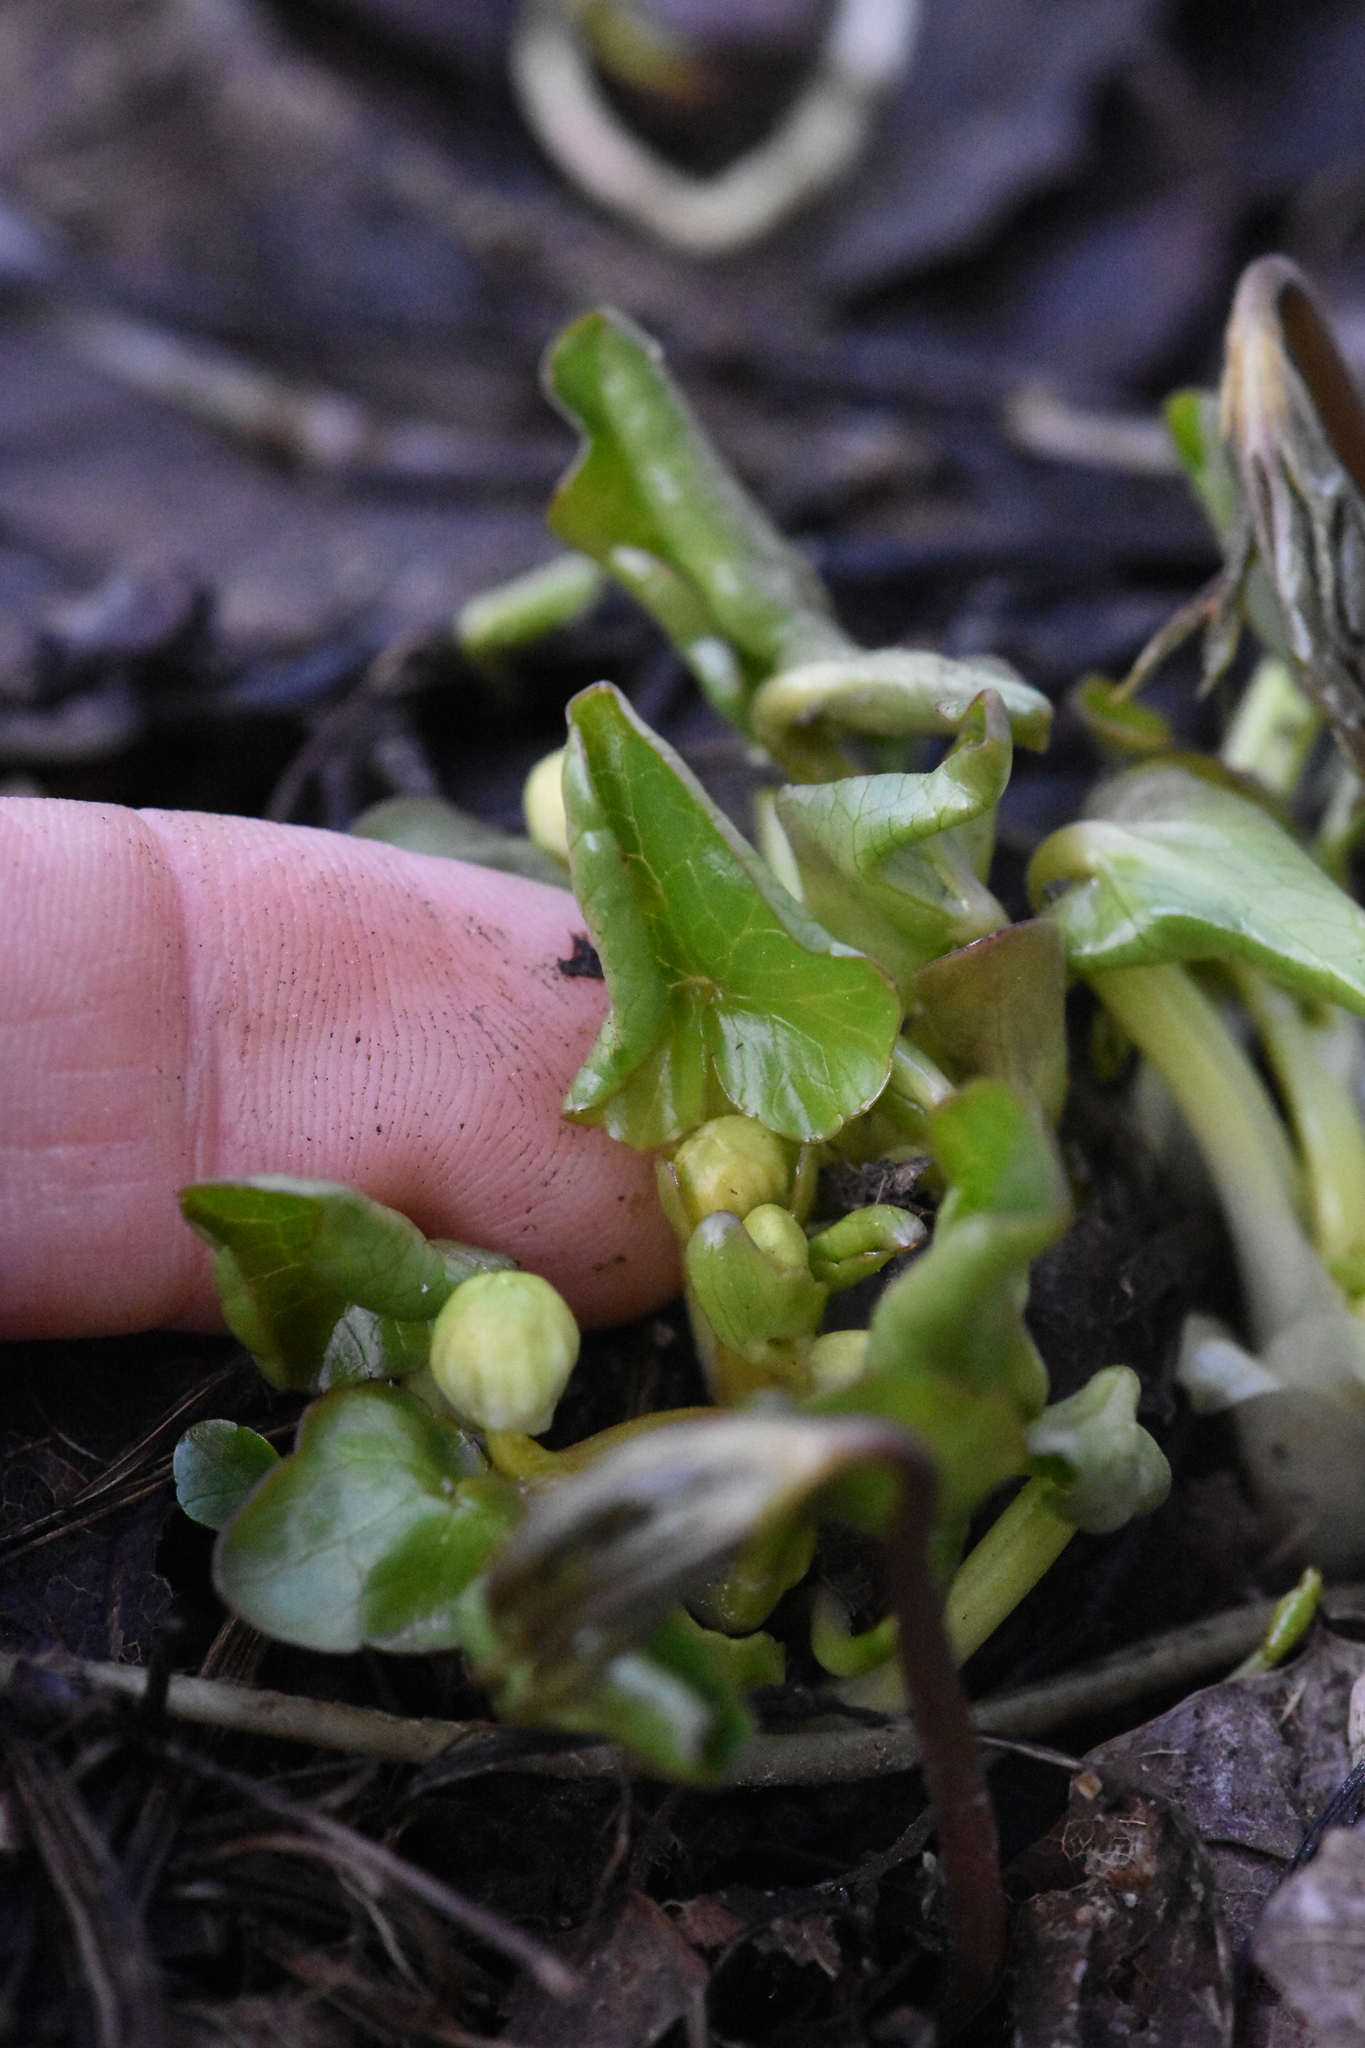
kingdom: Plantae
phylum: Tracheophyta
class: Magnoliopsida
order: Ranunculales
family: Ranunculaceae
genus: Ficaria
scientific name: Ficaria verna
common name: Lesser celandine
